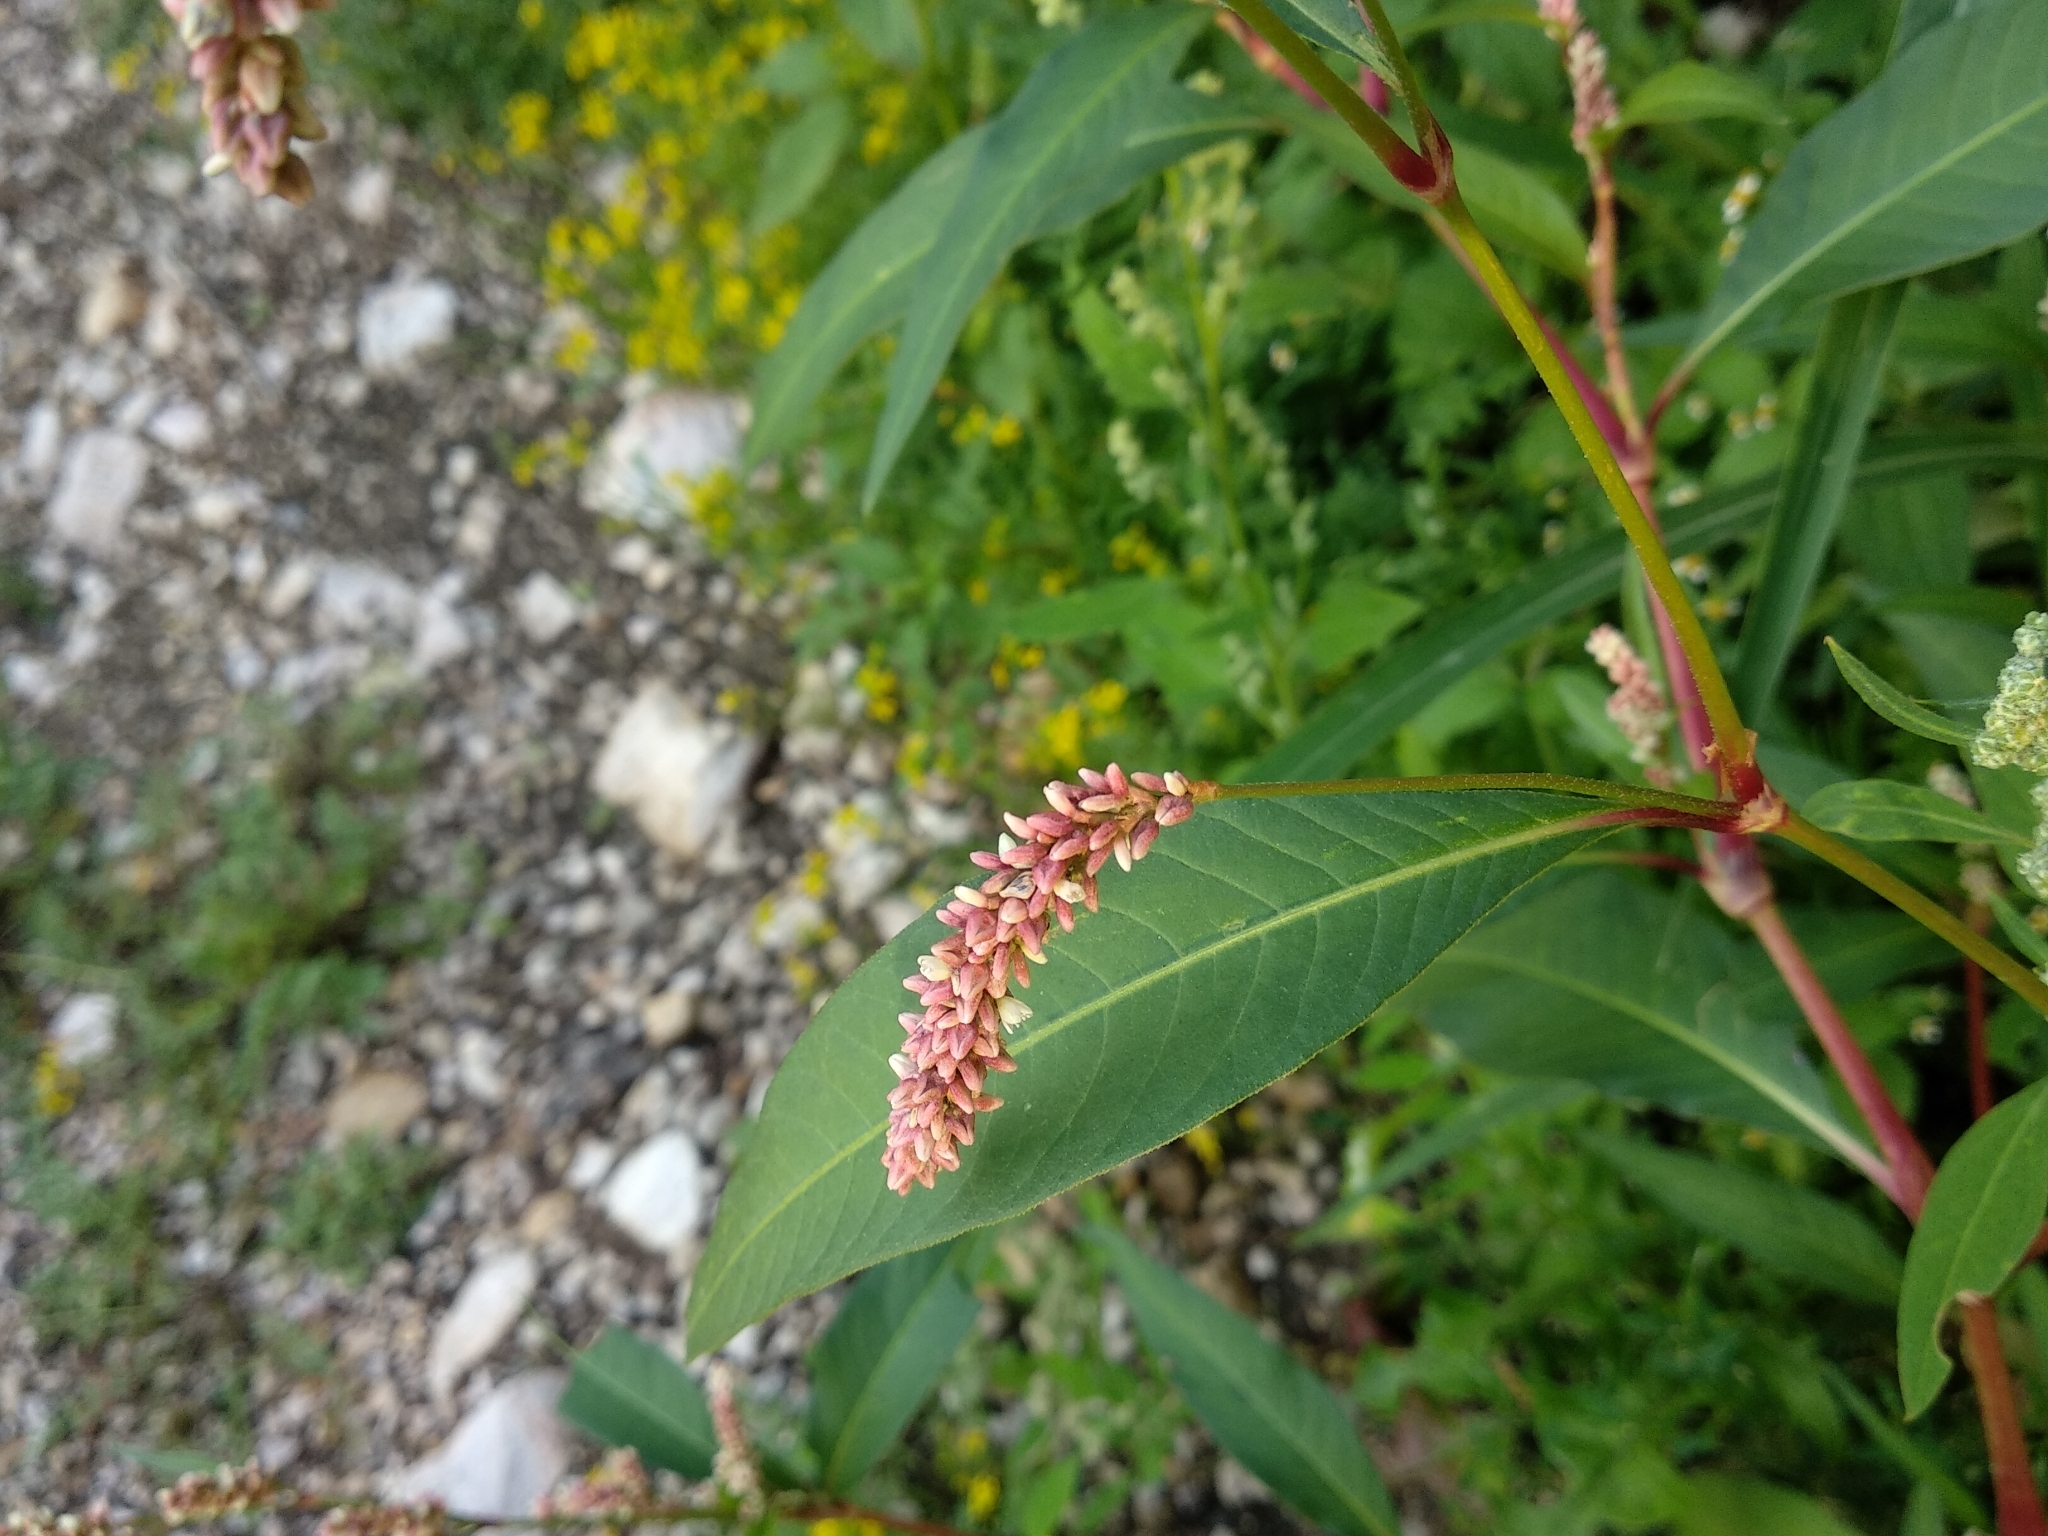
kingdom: Plantae
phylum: Tracheophyta
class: Magnoliopsida
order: Caryophyllales
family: Polygonaceae
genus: Persicaria
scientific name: Persicaria lapathifolia
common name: Curlytop knotweed
